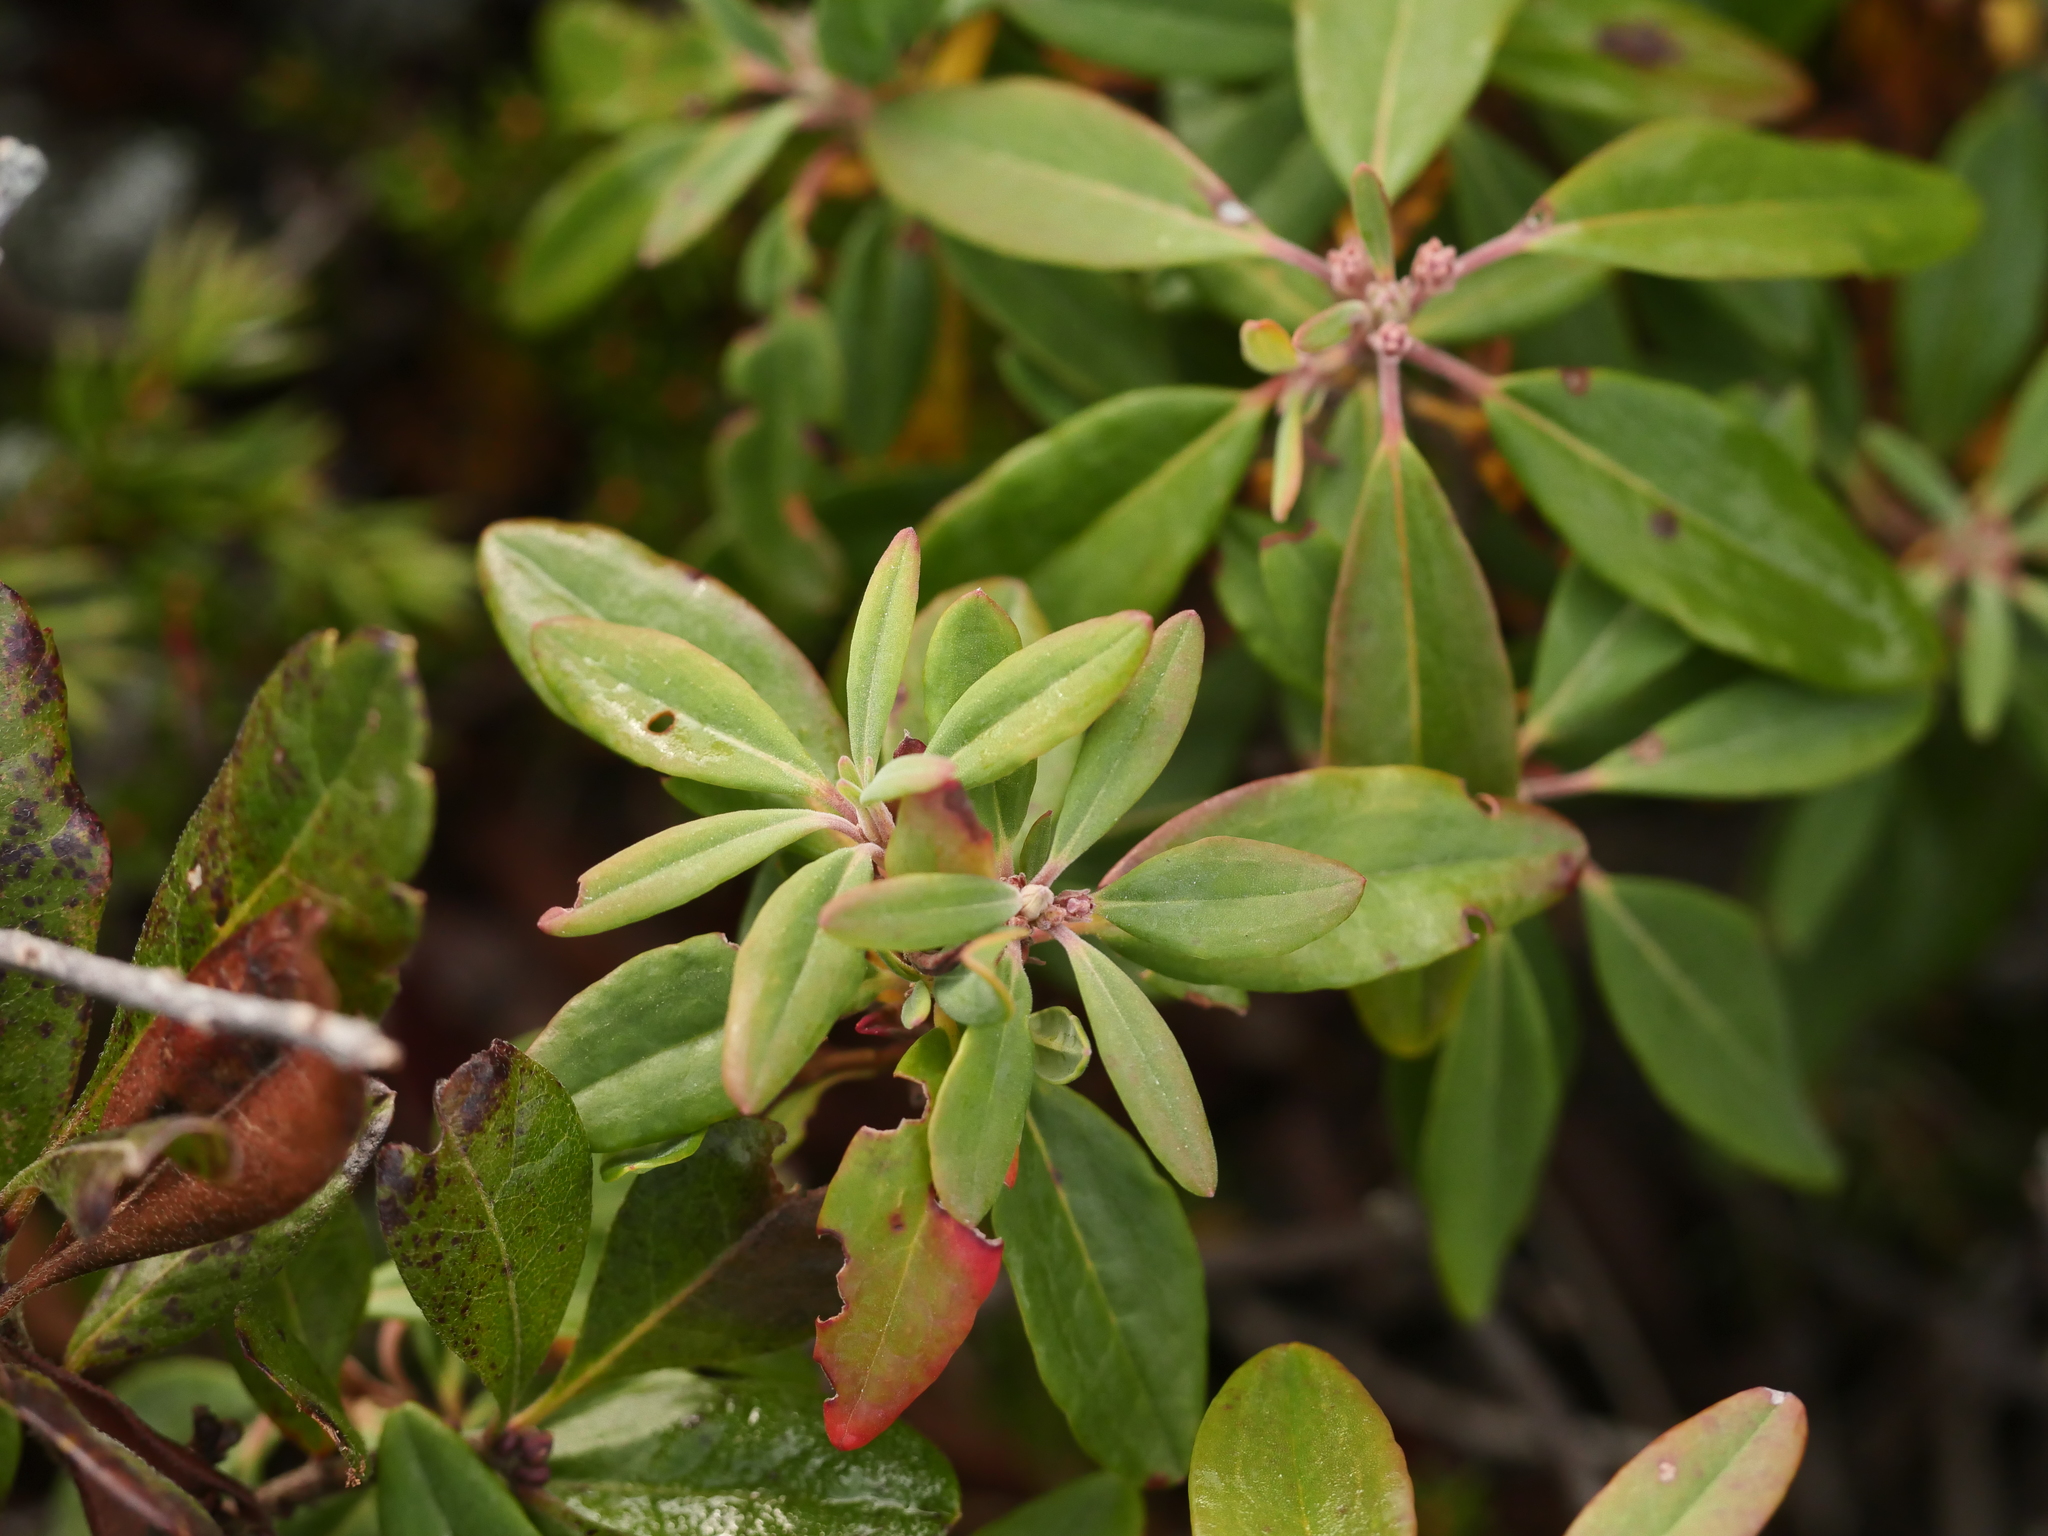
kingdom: Plantae
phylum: Tracheophyta
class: Magnoliopsida
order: Ericales
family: Ericaceae
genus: Kalmia
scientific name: Kalmia angustifolia
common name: Sheep-laurel
